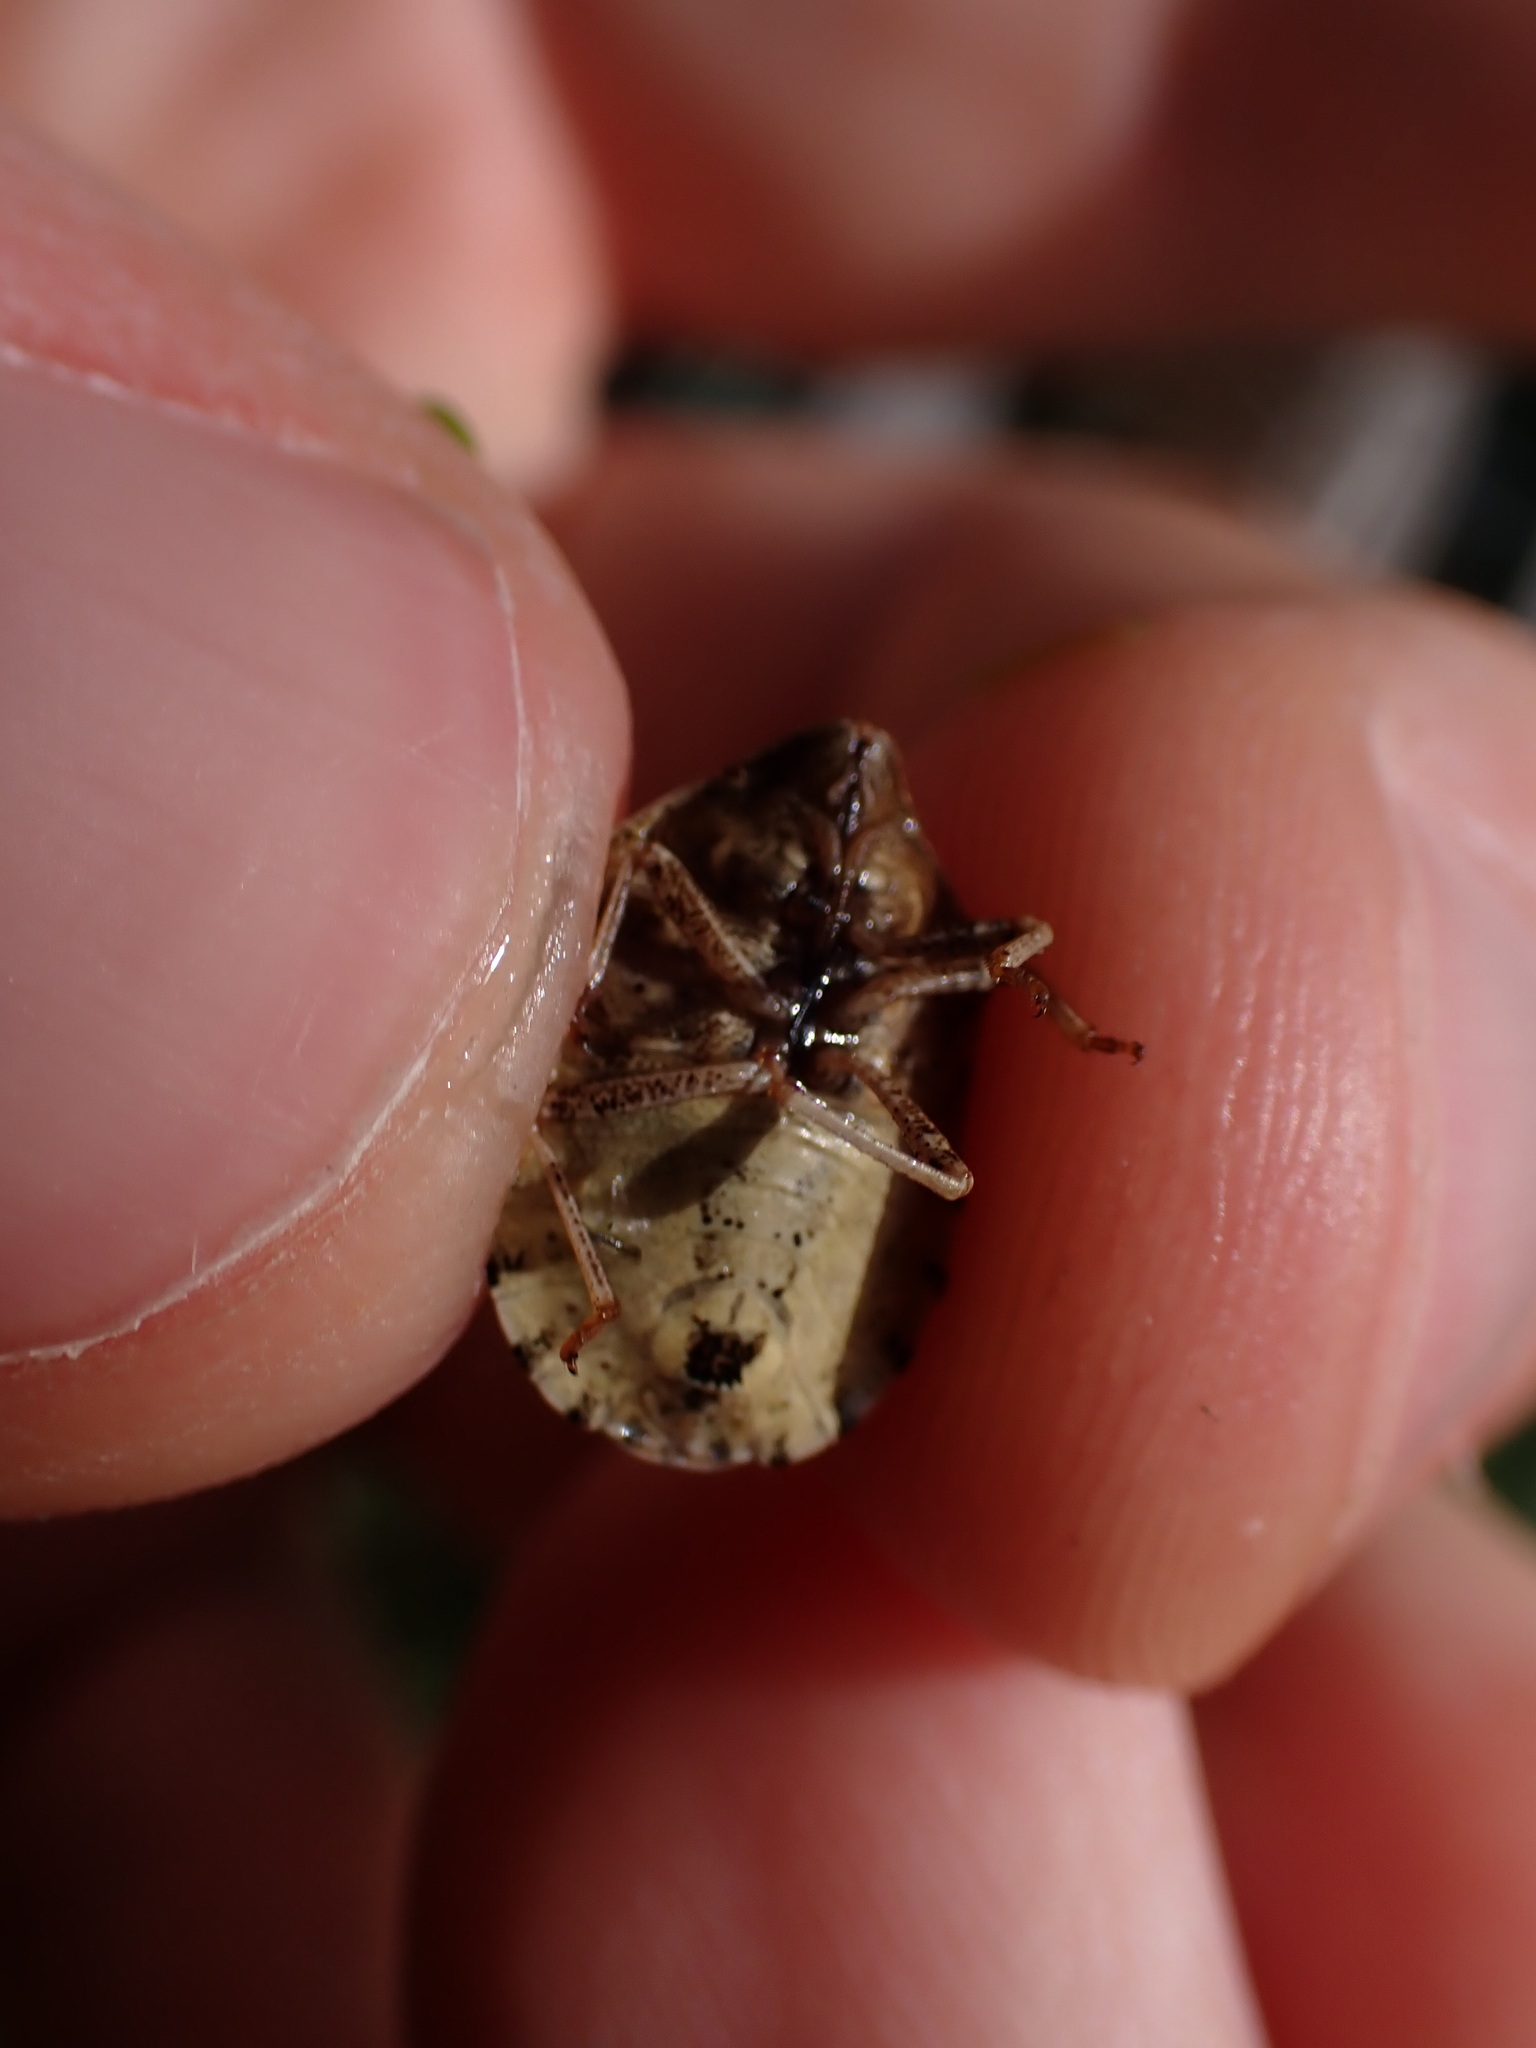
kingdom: Animalia
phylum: Arthropoda
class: Insecta
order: Hemiptera
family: Scutelleridae
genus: Eurygaster
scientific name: Eurygaster maura
